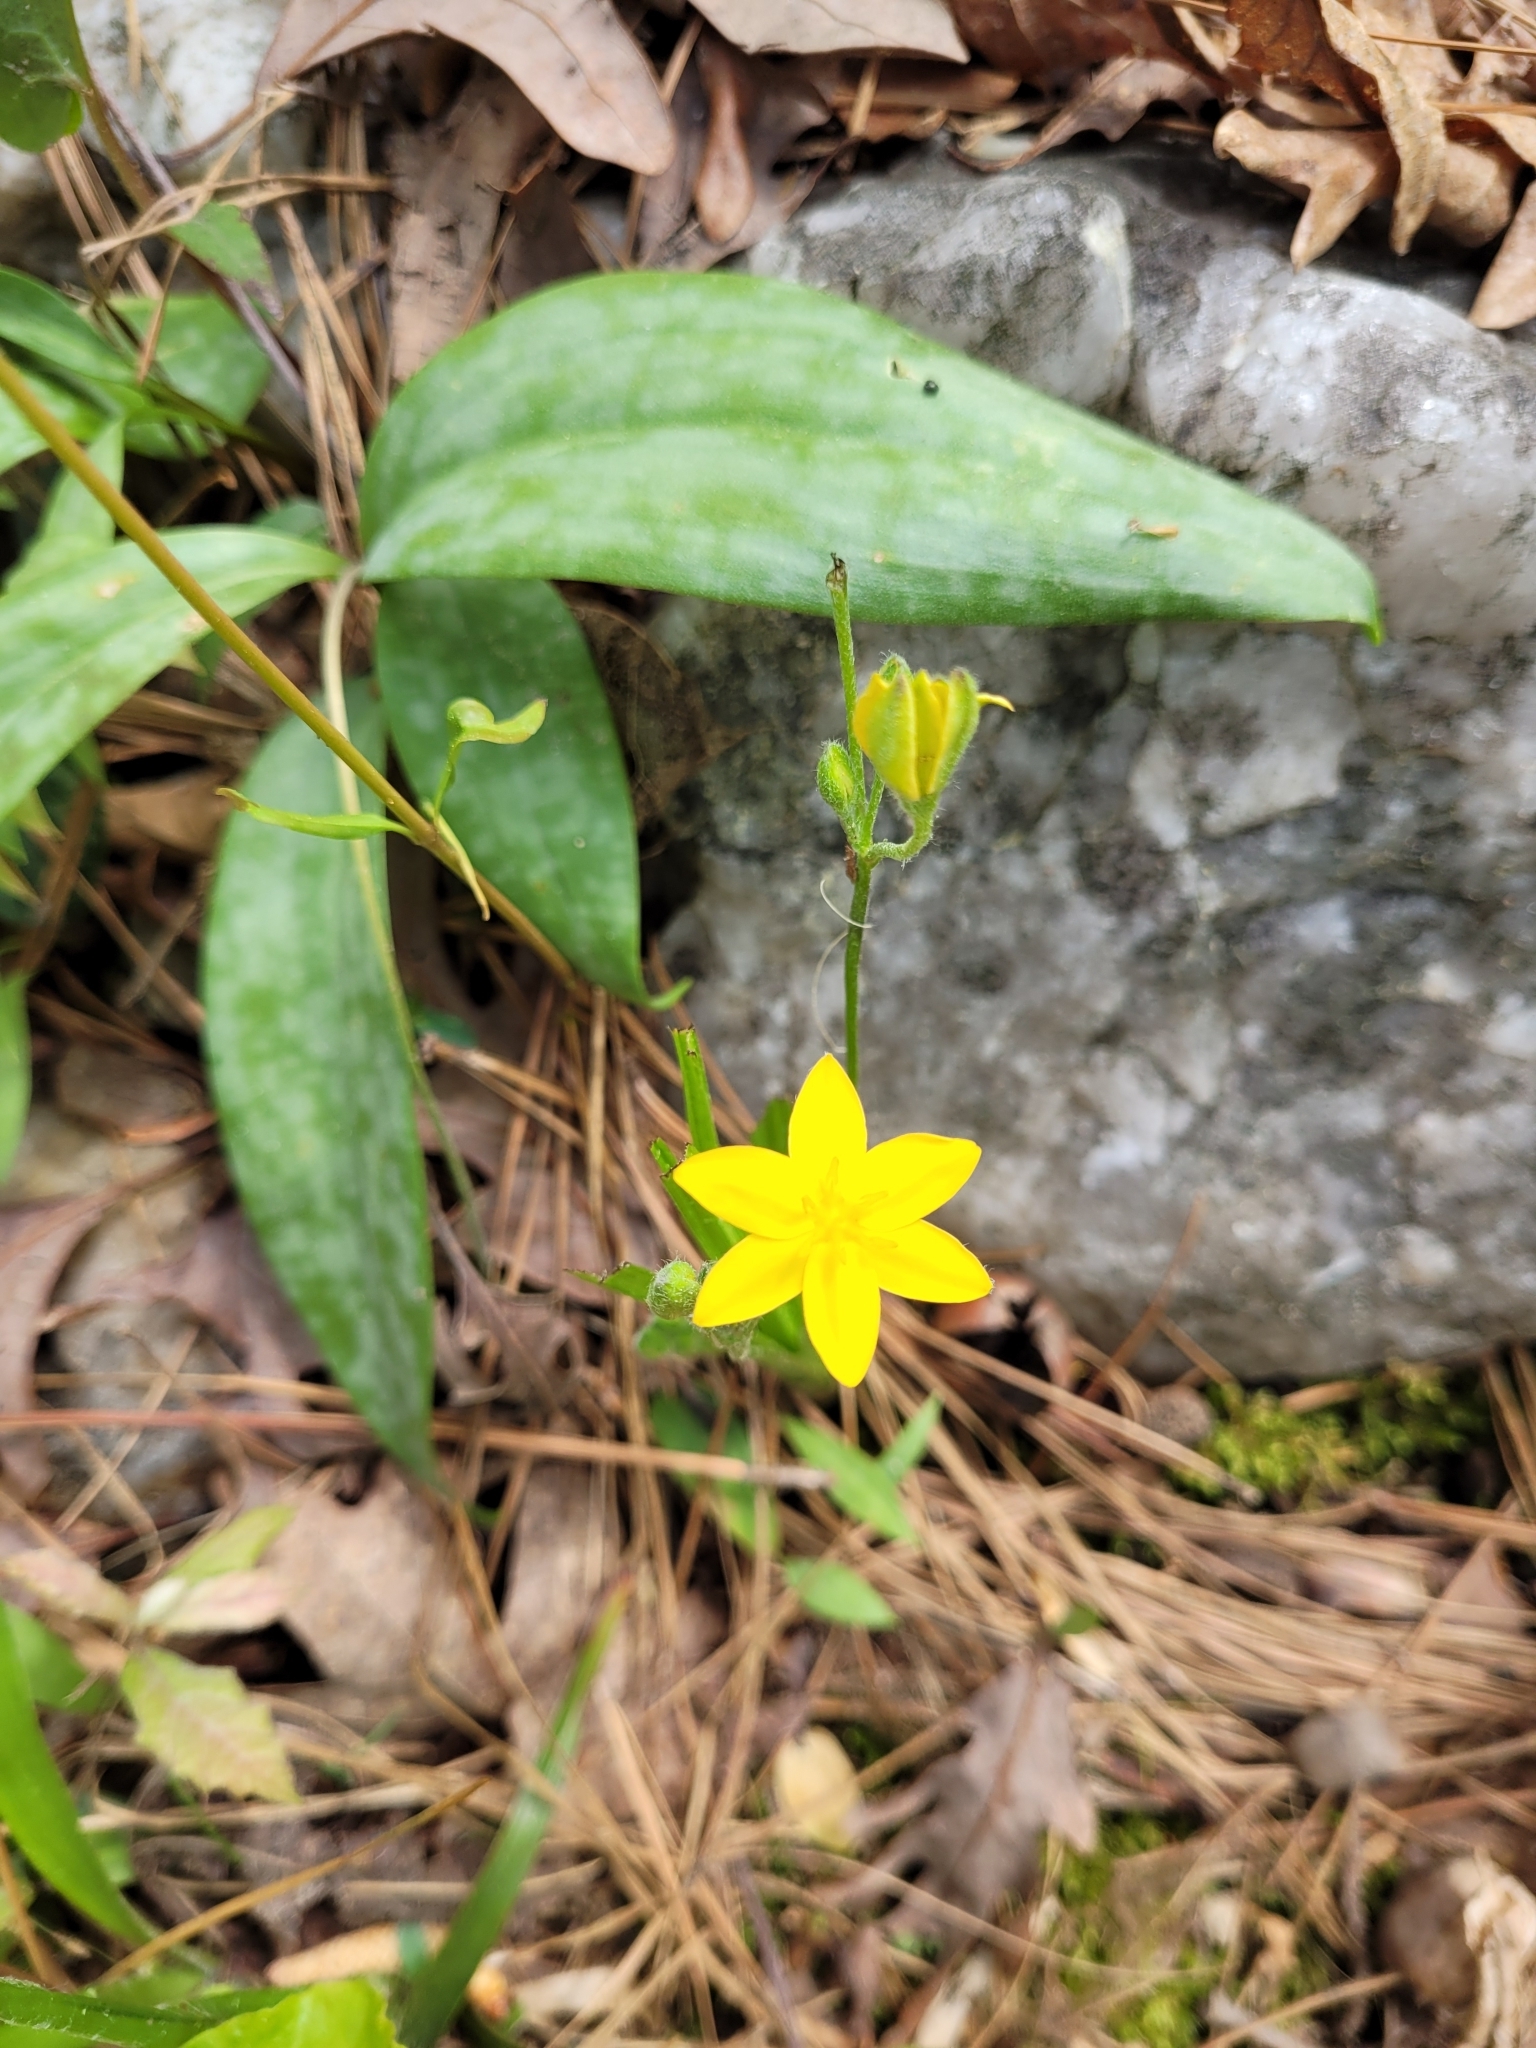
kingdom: Plantae
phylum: Tracheophyta
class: Liliopsida
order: Asparagales
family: Hypoxidaceae
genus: Hypoxis
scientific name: Hypoxis hirsuta
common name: Common goldstar
